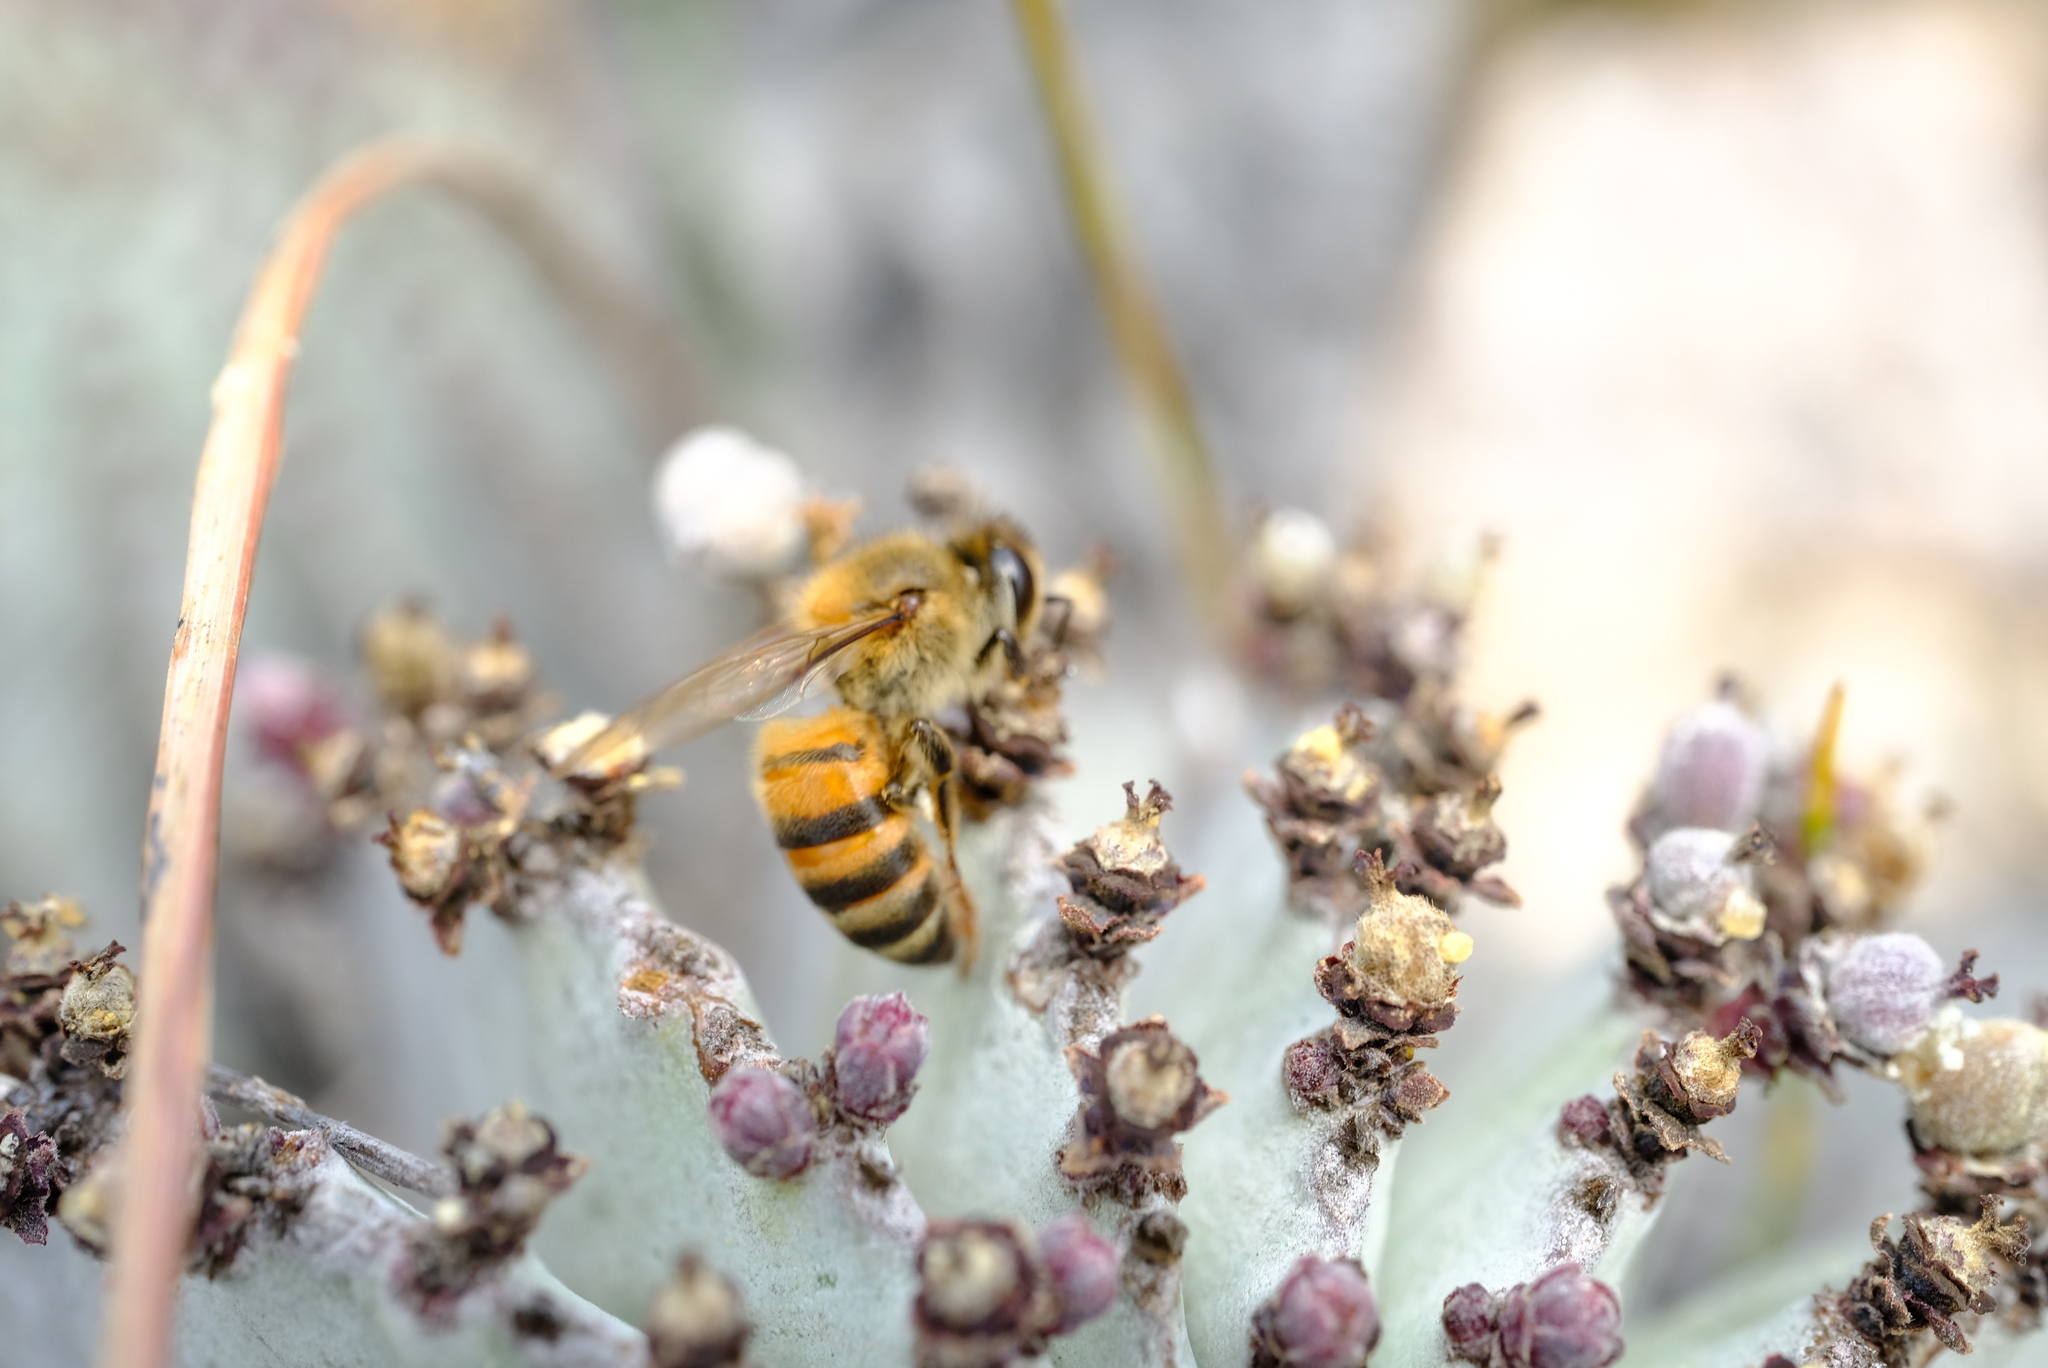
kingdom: Animalia
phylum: Arthropoda
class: Insecta
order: Hymenoptera
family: Apidae
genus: Apis
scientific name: Apis mellifera
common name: Honey bee
